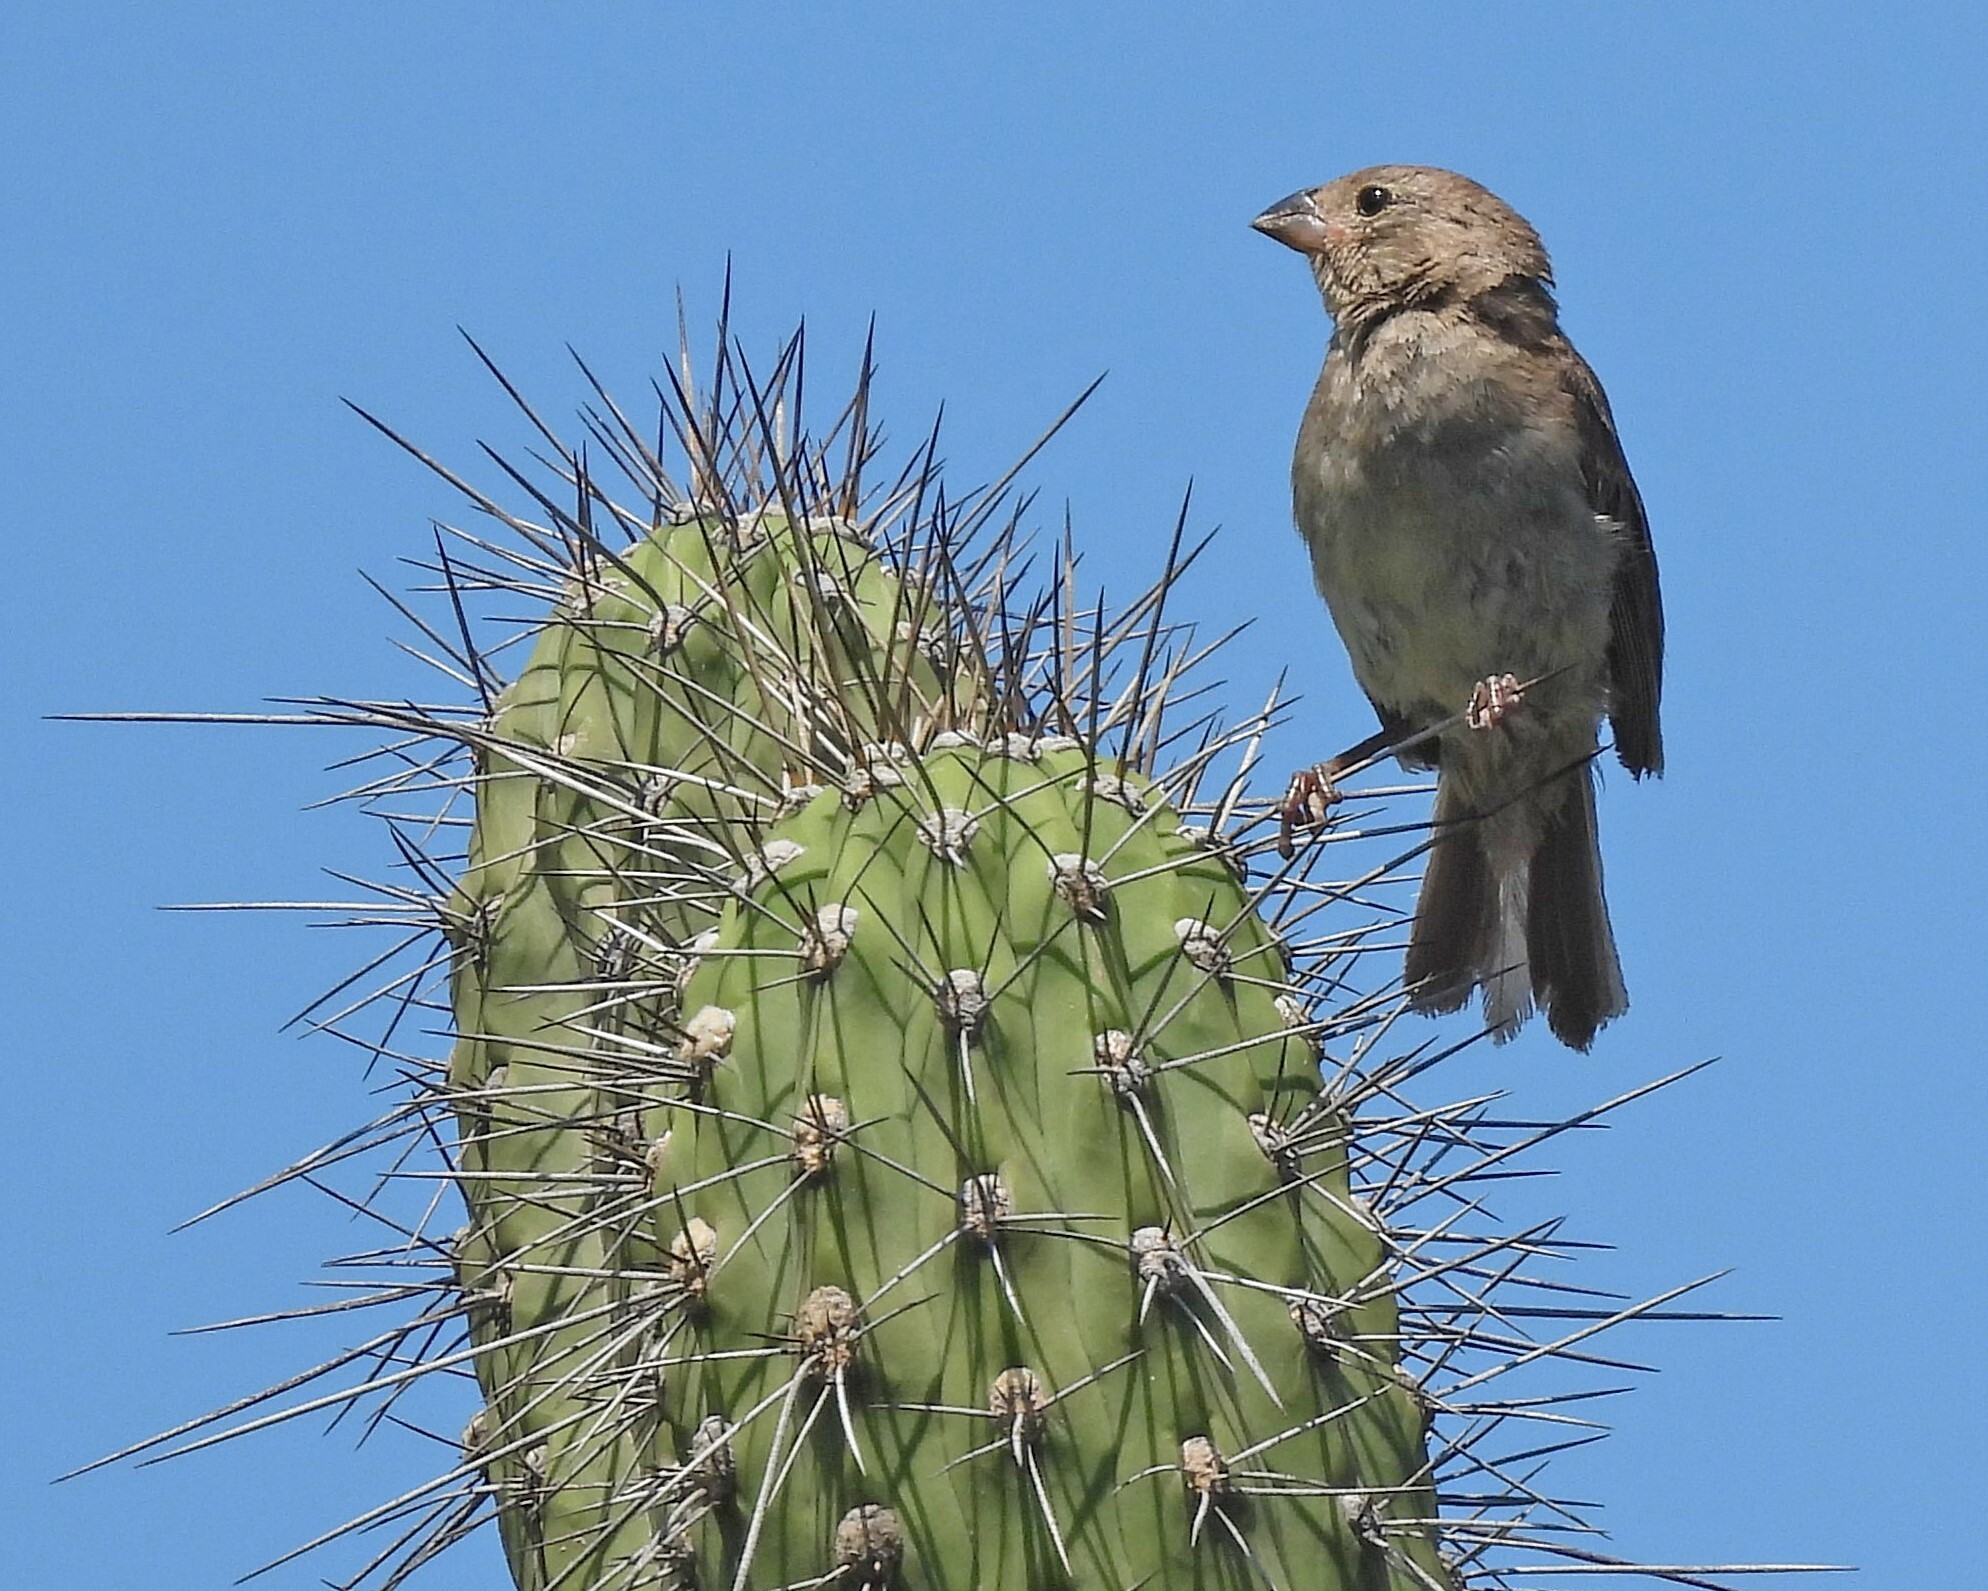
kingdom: Animalia
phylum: Chordata
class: Aves
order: Passeriformes
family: Thraupidae
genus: Asemospiza
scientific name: Asemospiza obscura
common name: Dull-colored grassquit
